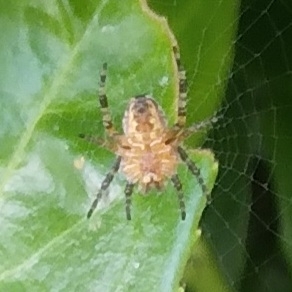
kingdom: Animalia
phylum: Arthropoda
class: Arachnida
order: Araneae
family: Araneidae
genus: Araneus
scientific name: Araneus diadematus
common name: Cross orbweaver
